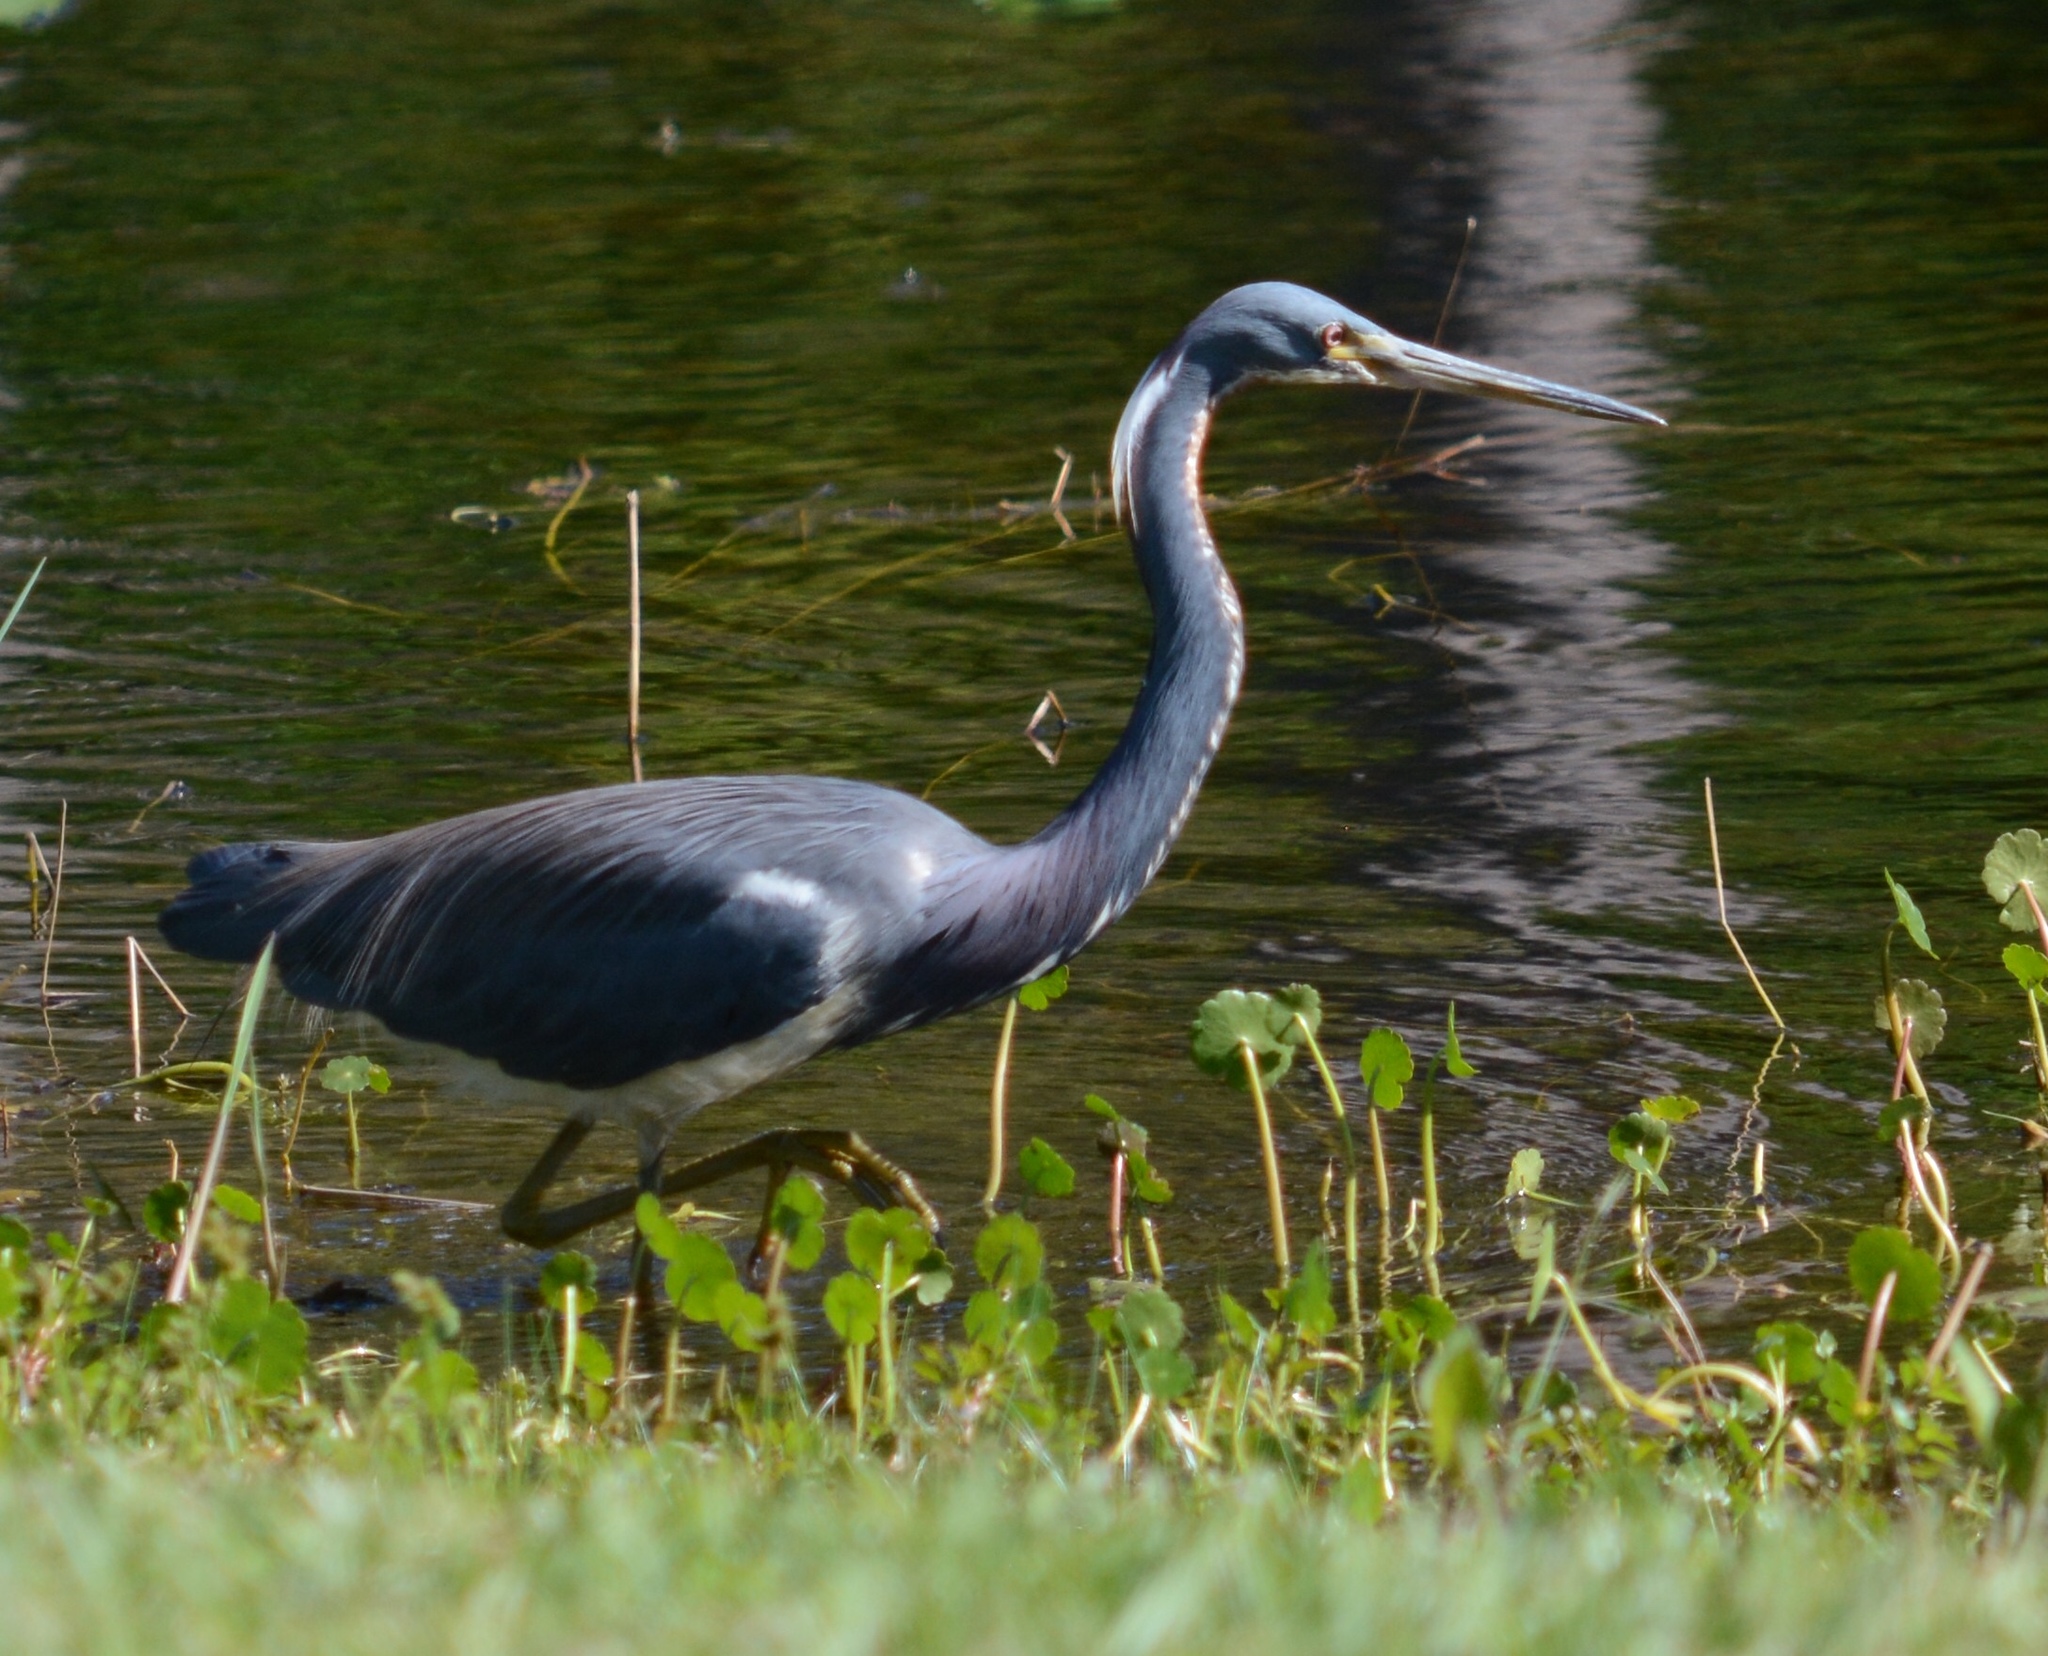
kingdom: Animalia
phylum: Chordata
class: Aves
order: Pelecaniformes
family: Ardeidae
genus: Egretta
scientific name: Egretta tricolor
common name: Tricolored heron
